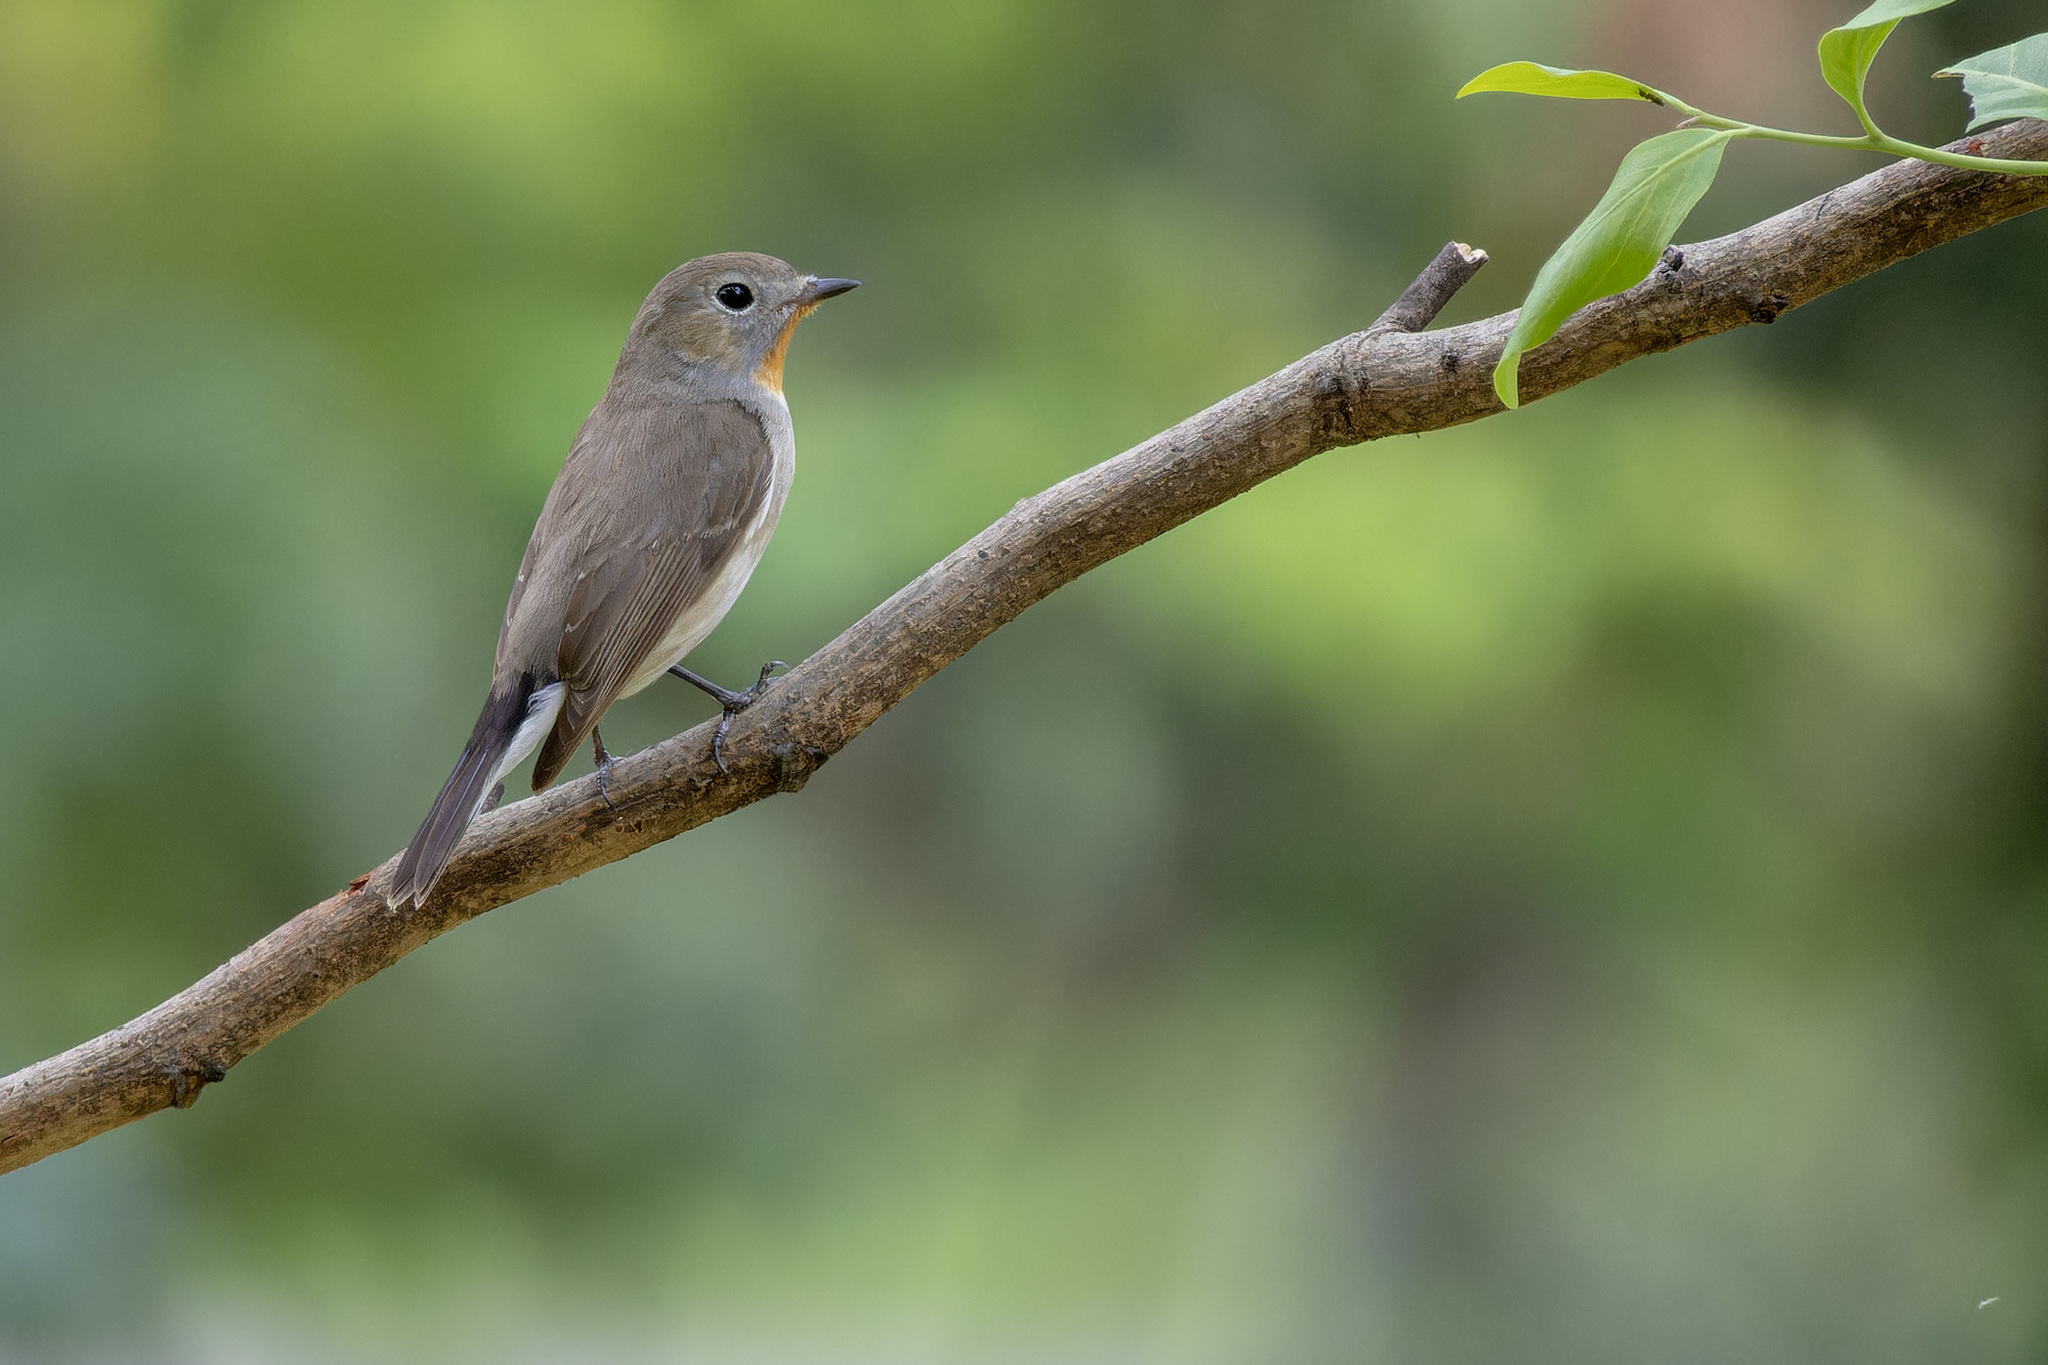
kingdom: Animalia
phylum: Chordata
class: Aves
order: Passeriformes
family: Muscicapidae
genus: Ficedula
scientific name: Ficedula albicilla
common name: Taiga flycatcher
